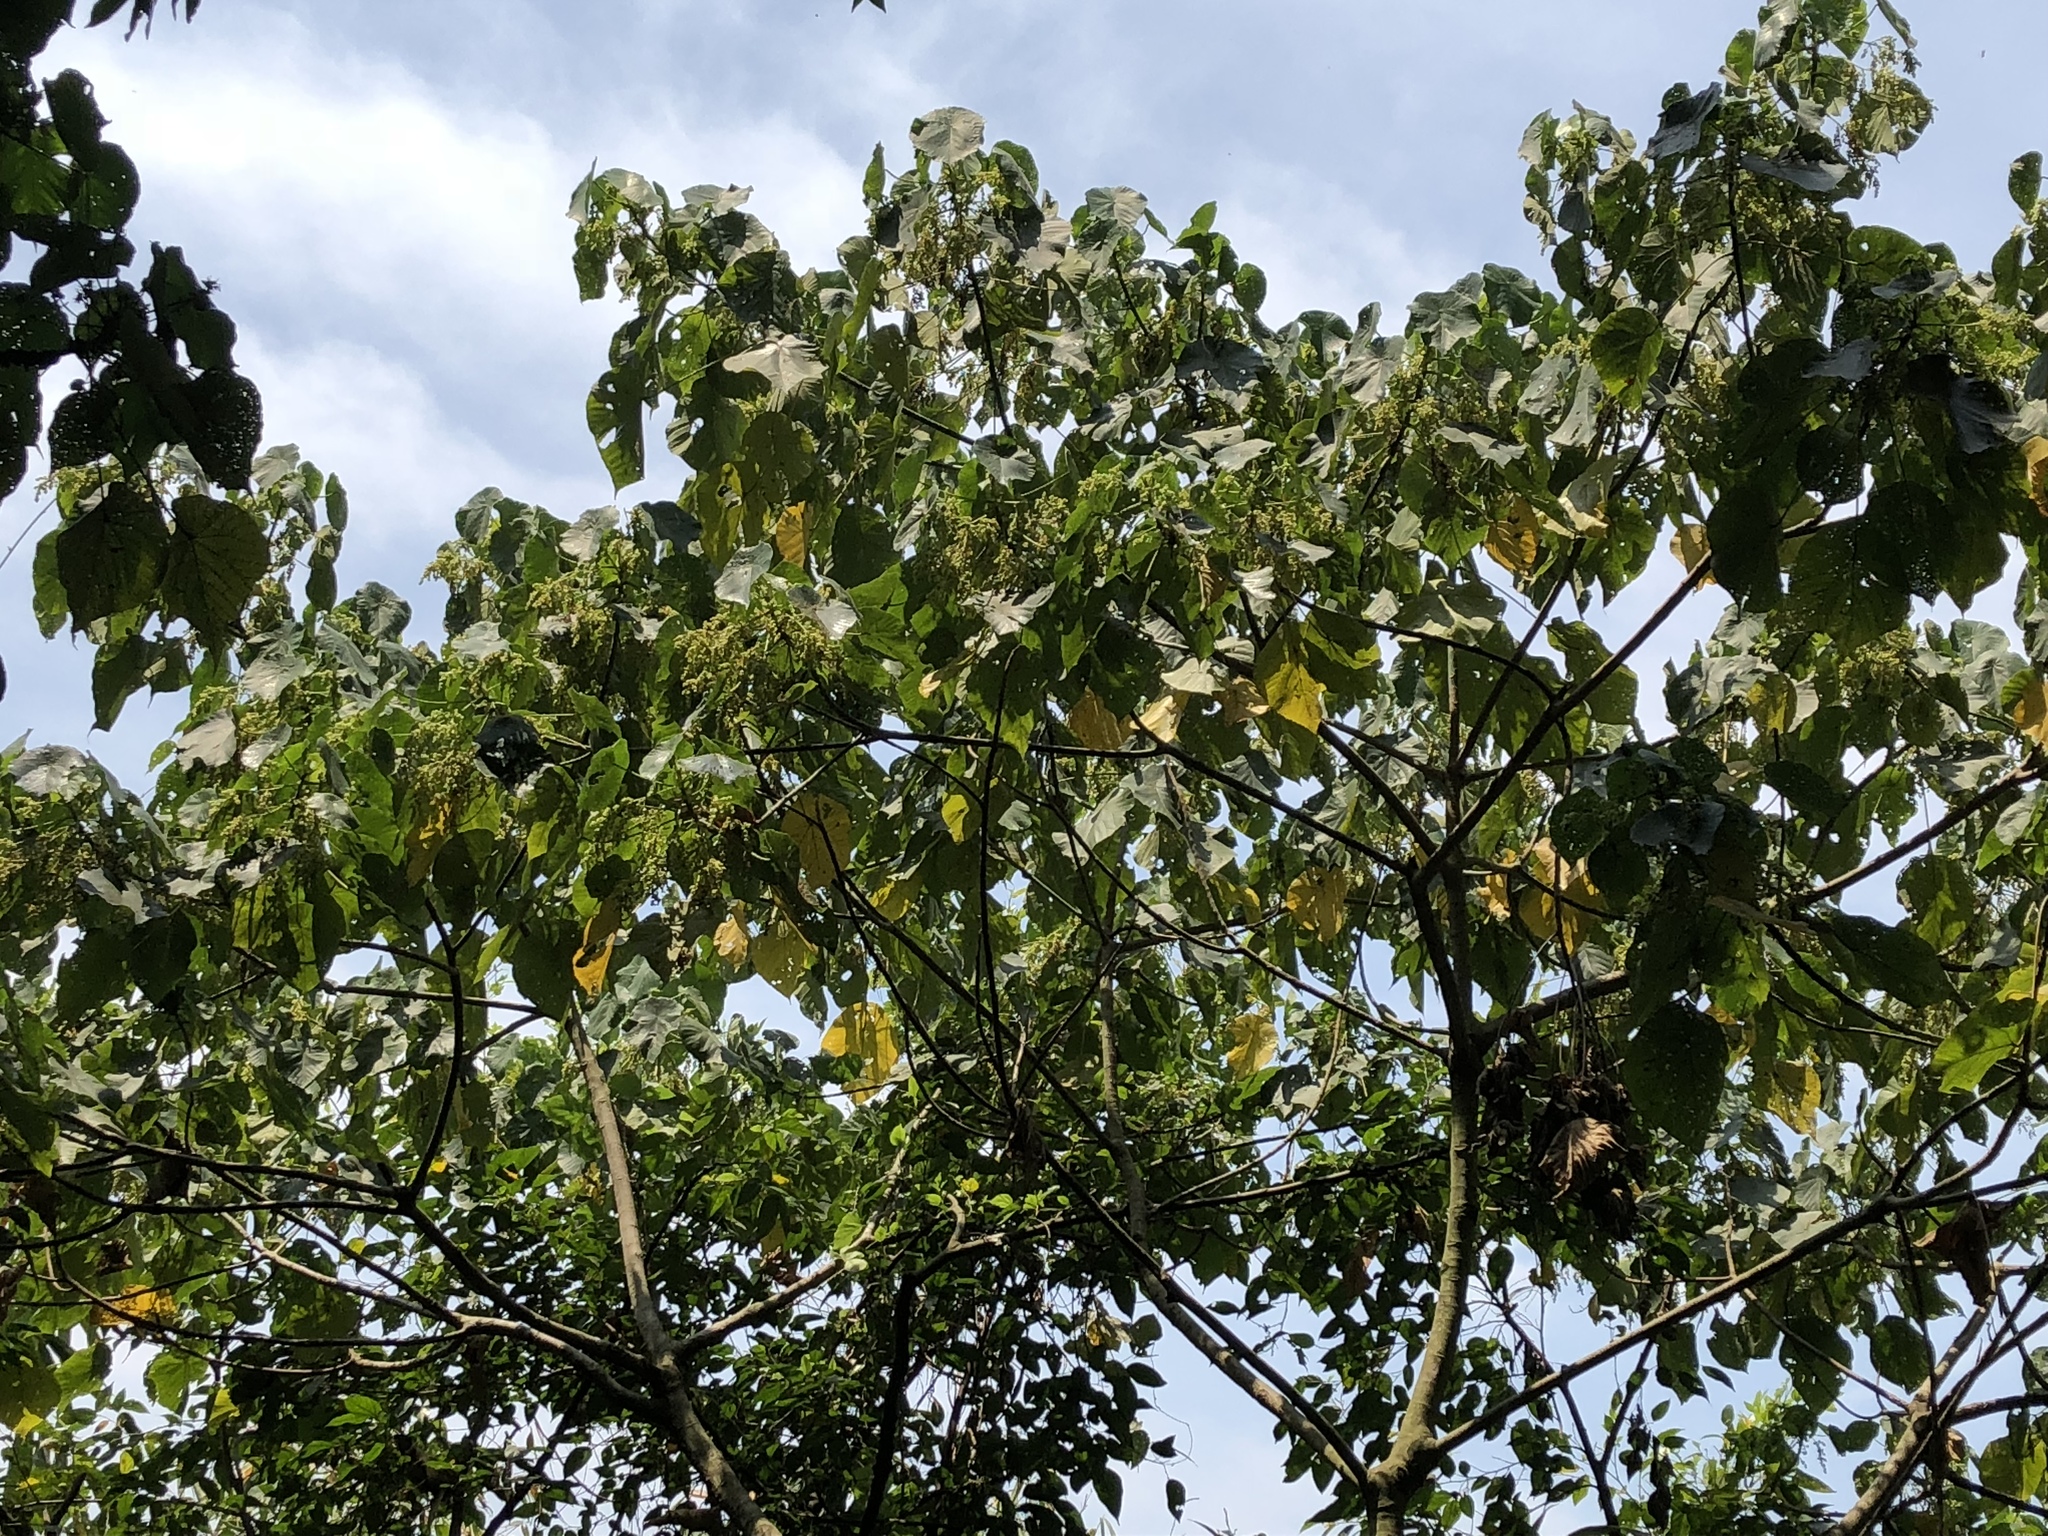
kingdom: Plantae
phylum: Tracheophyta
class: Magnoliopsida
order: Malpighiales
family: Euphorbiaceae
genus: Macaranga
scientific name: Macaranga tanarius
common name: Parasol leaf tree
